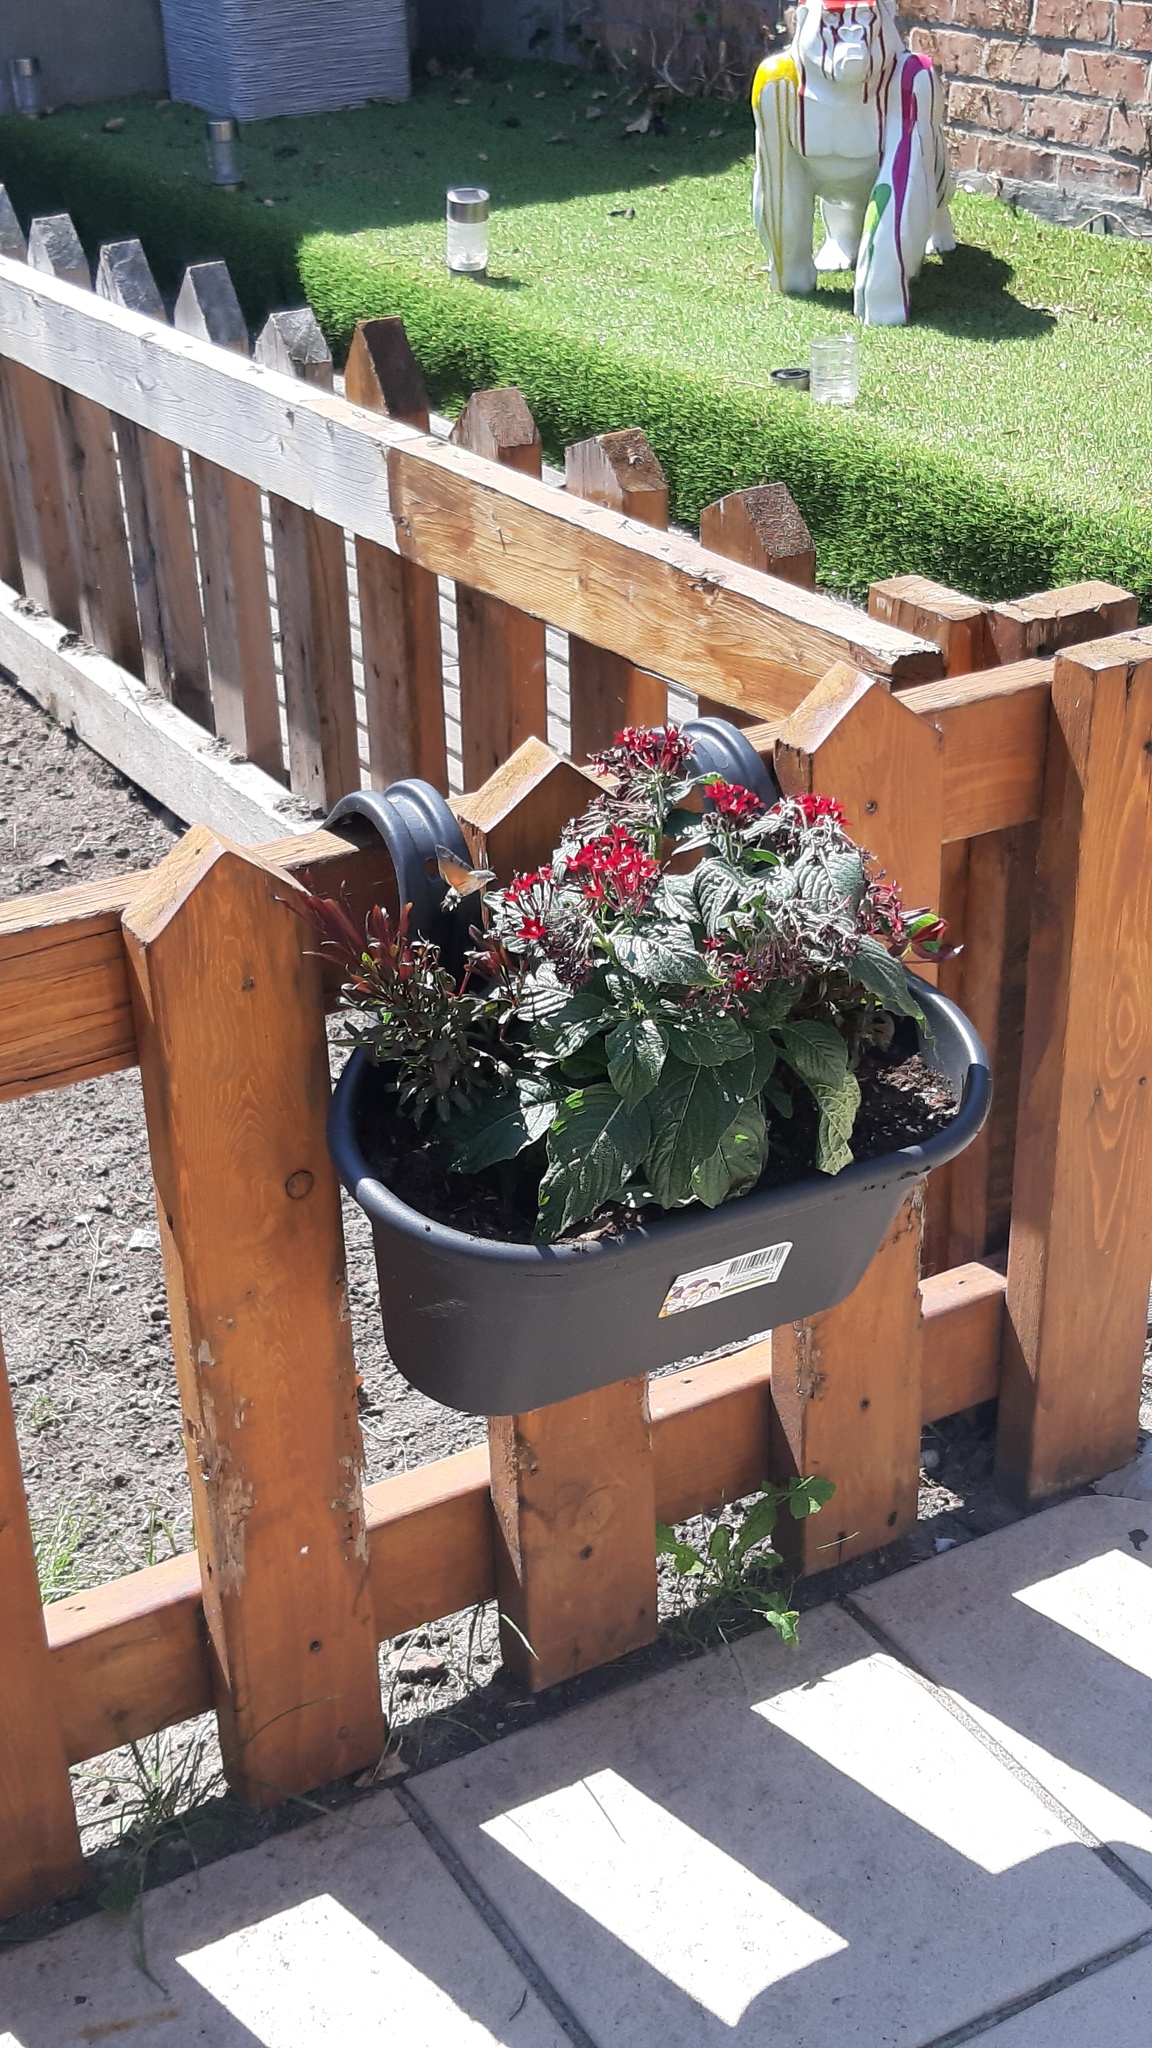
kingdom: Animalia
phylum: Arthropoda
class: Insecta
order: Lepidoptera
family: Sphingidae
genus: Macroglossum
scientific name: Macroglossum stellatarum
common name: Humming-bird hawk-moth
